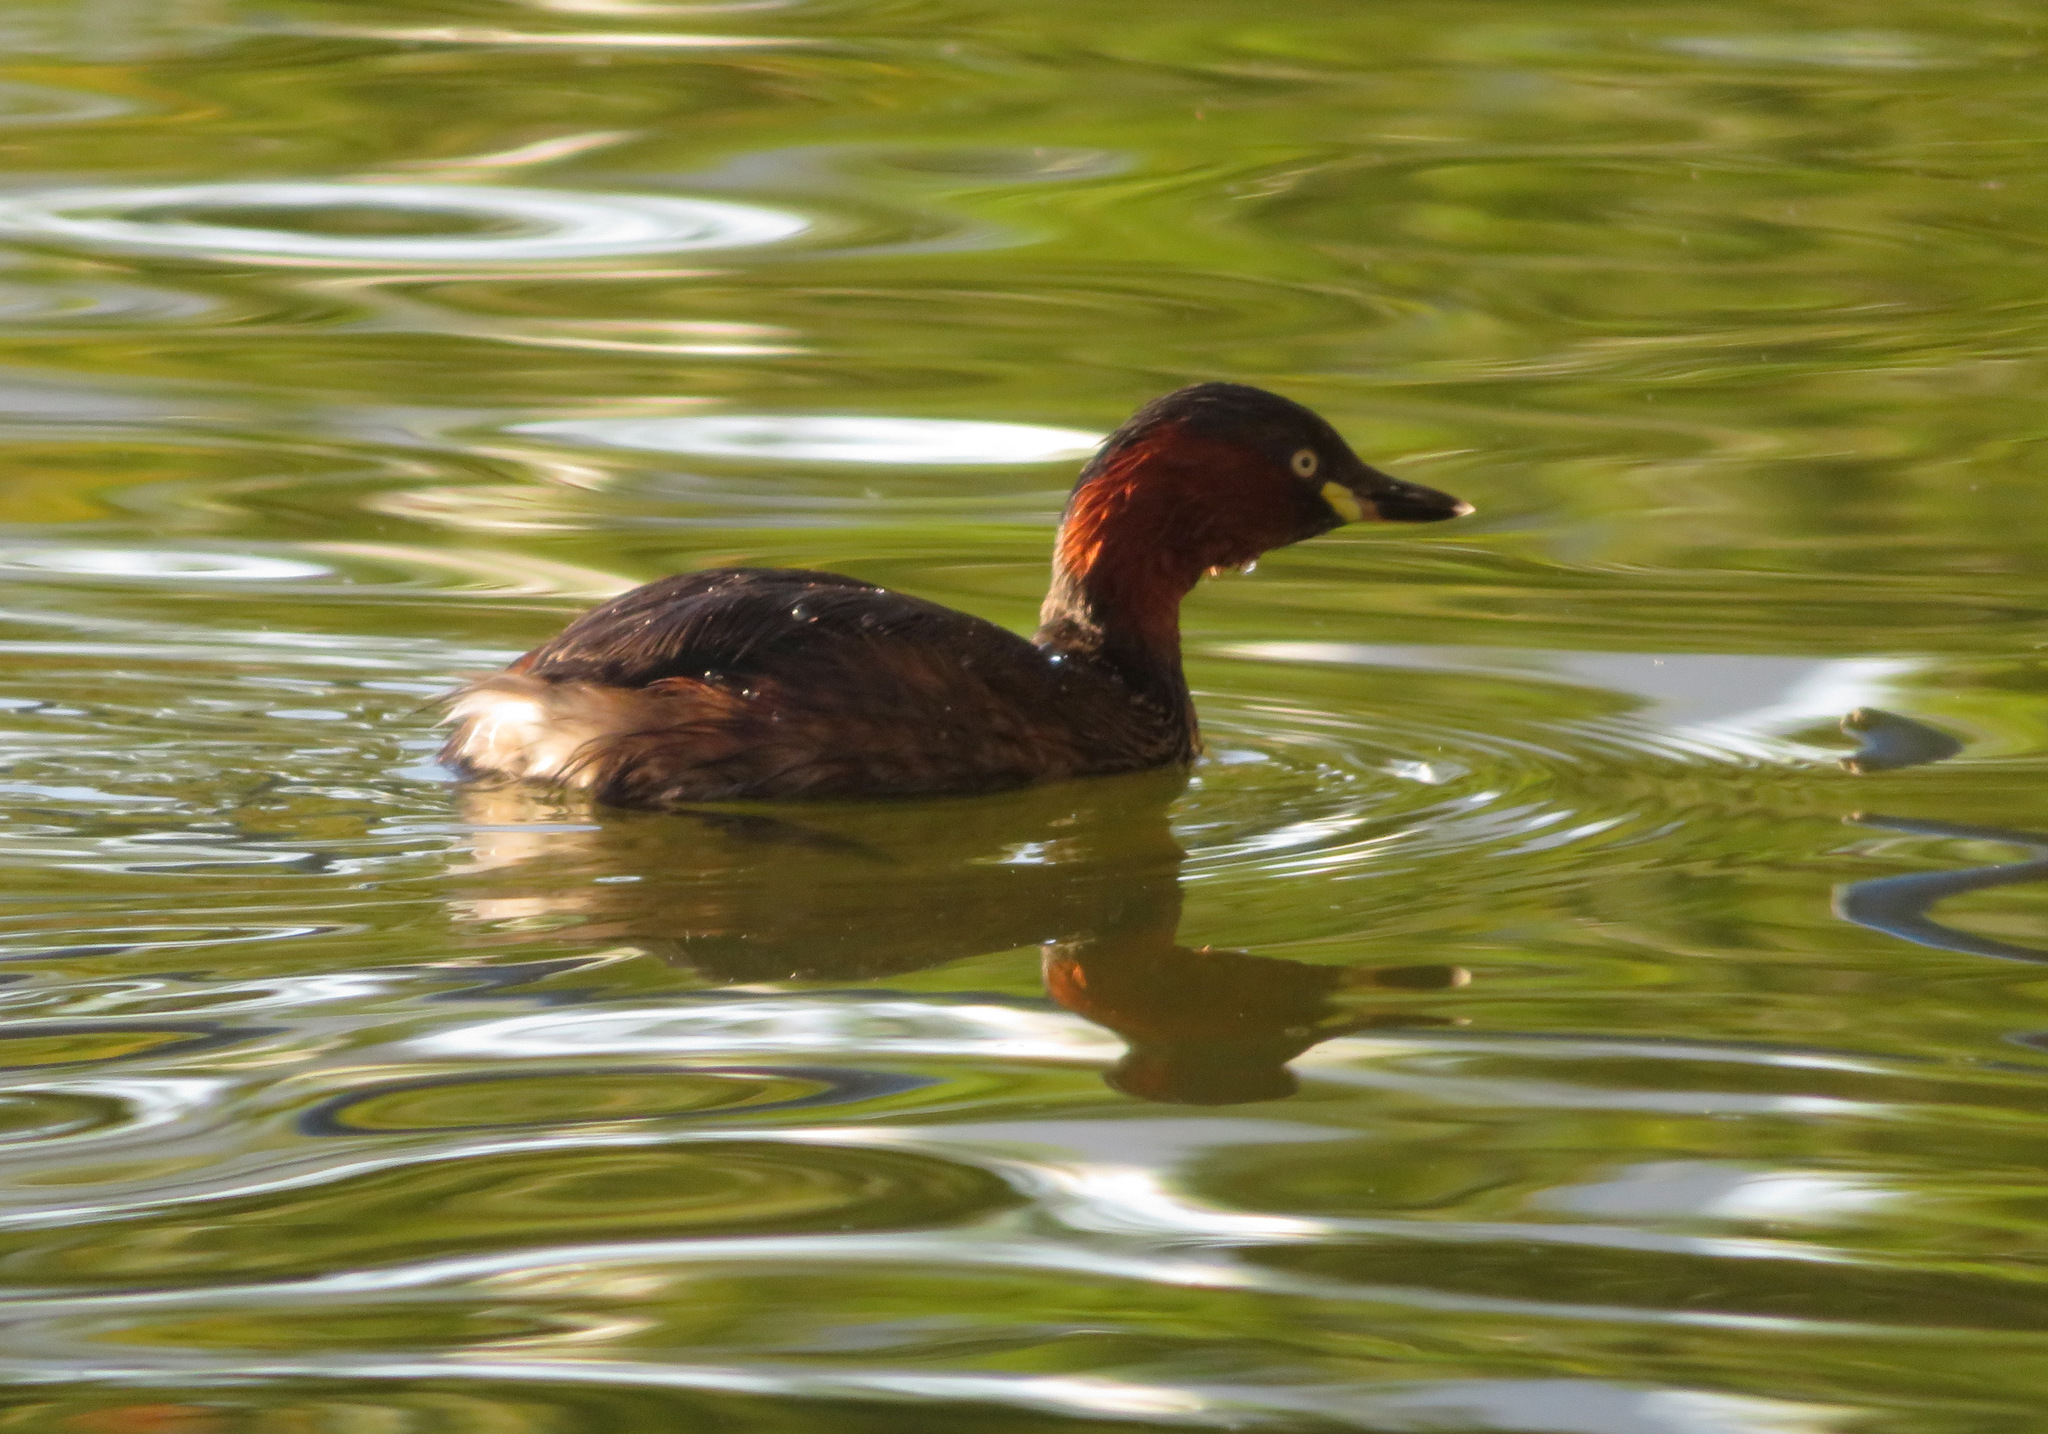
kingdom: Animalia
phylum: Chordata
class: Aves
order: Podicipediformes
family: Podicipedidae
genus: Tachybaptus
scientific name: Tachybaptus ruficollis
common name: Little grebe
